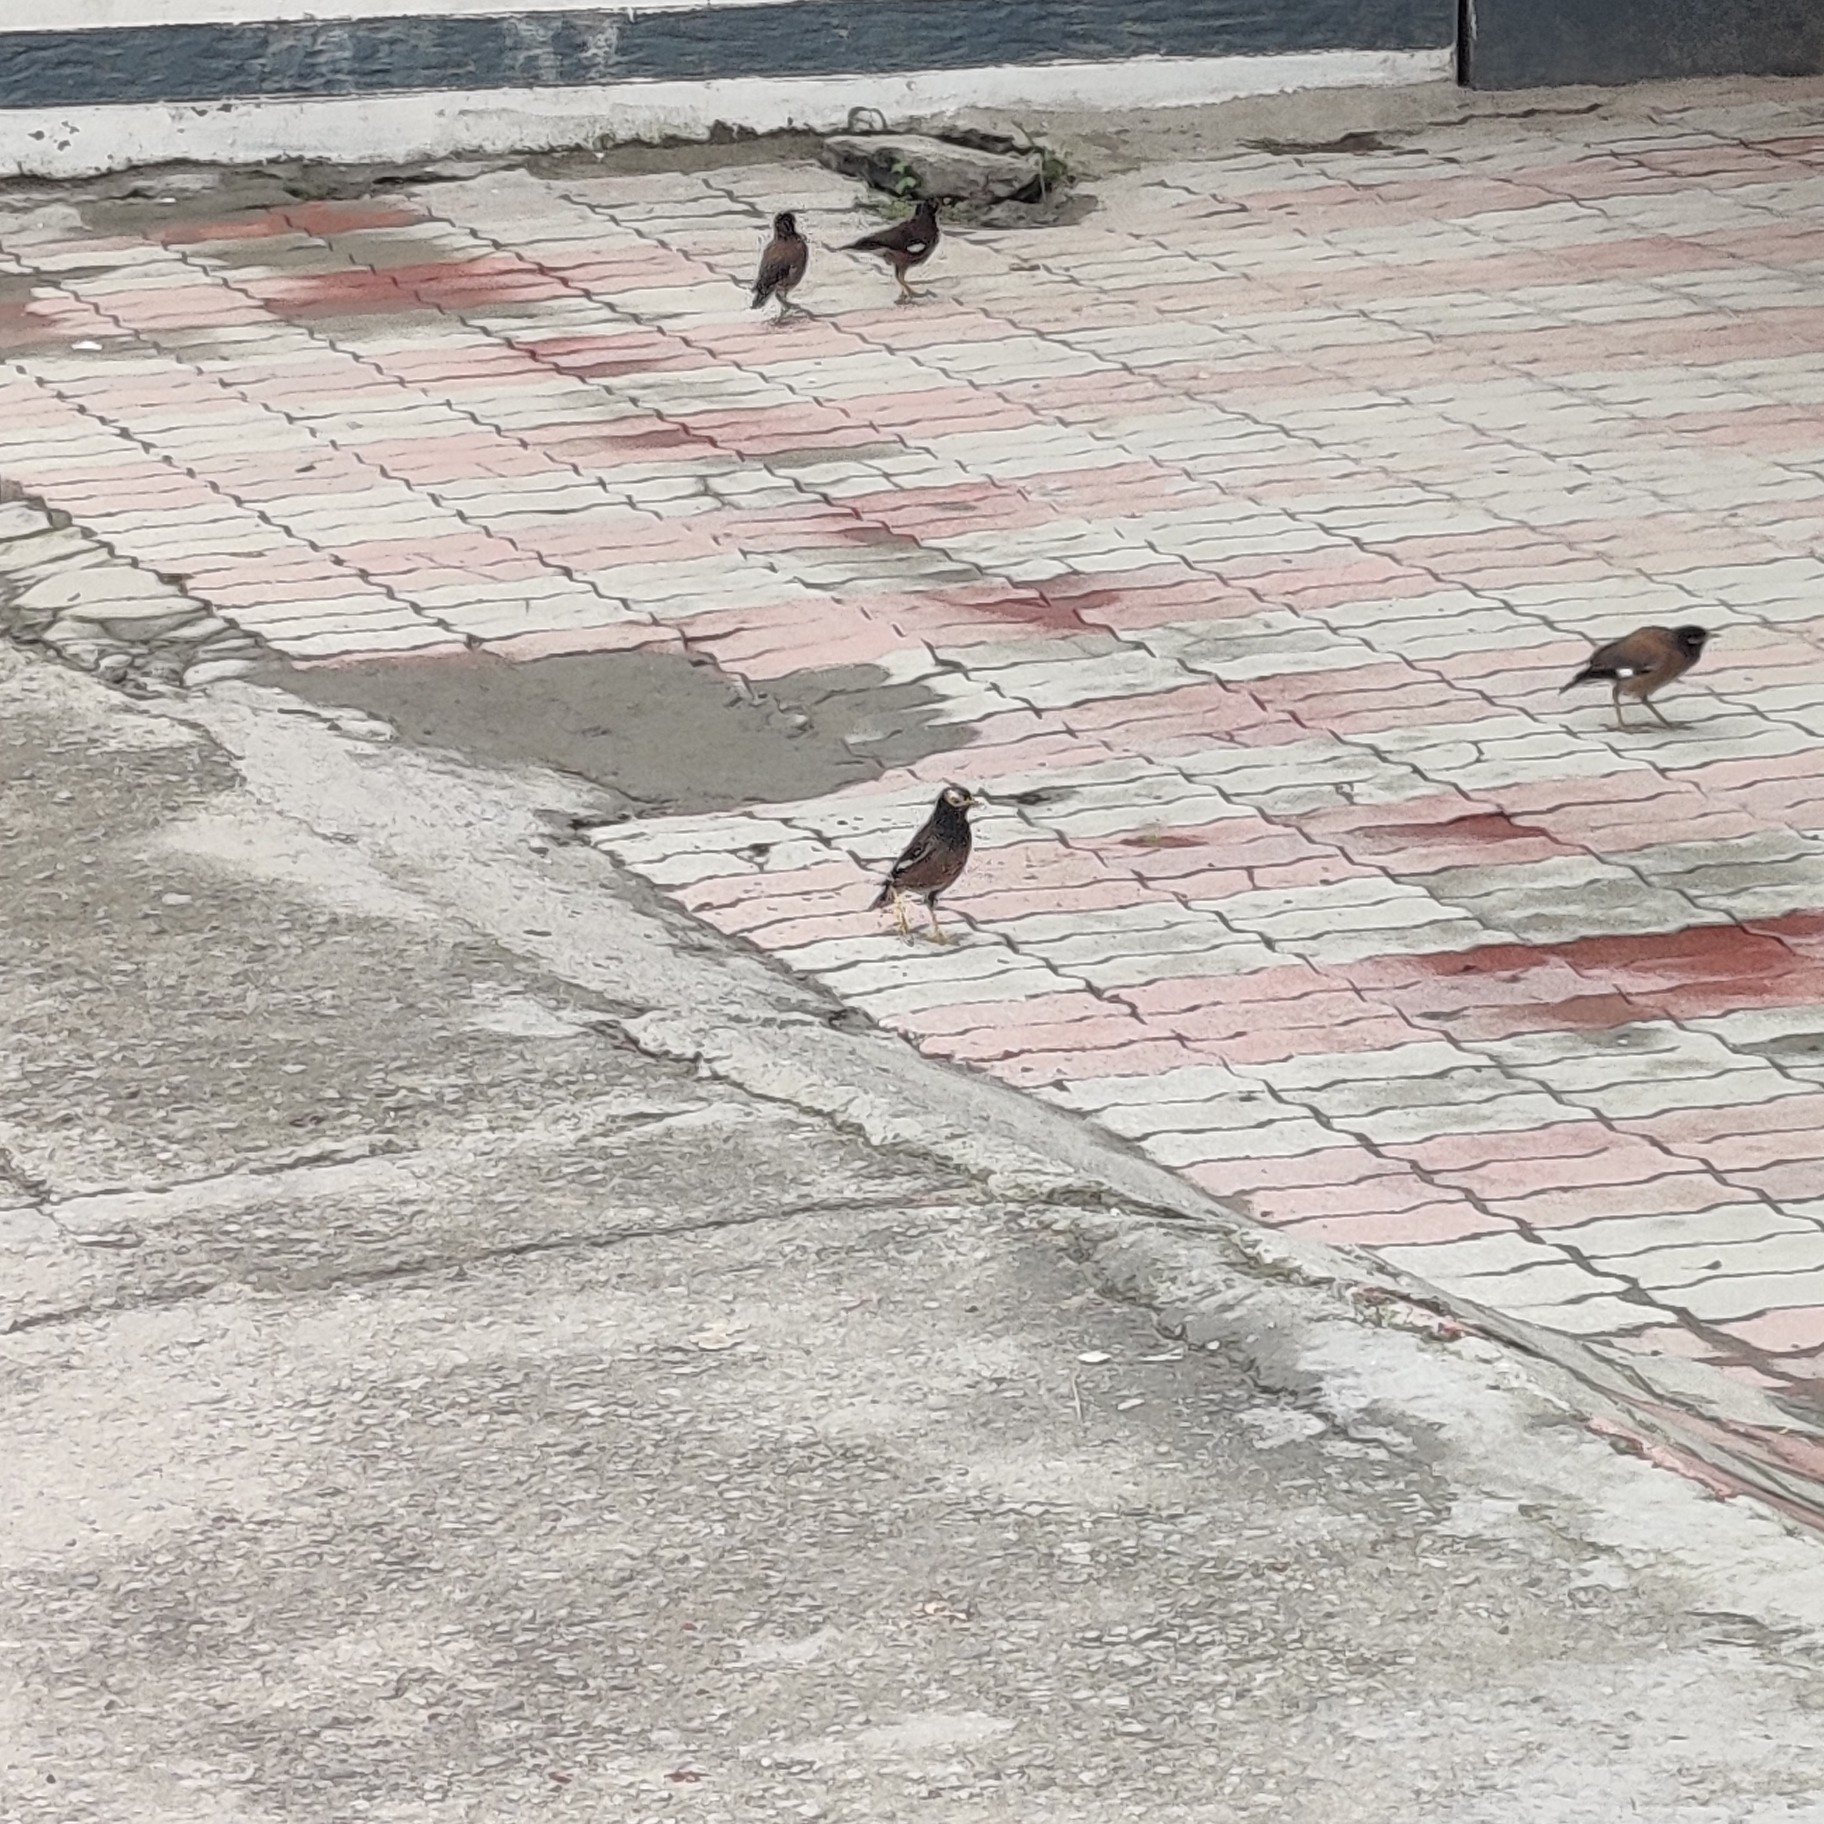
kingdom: Animalia
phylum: Chordata
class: Aves
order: Passeriformes
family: Sturnidae
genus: Acridotheres
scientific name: Acridotheres tristis
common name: Common myna
